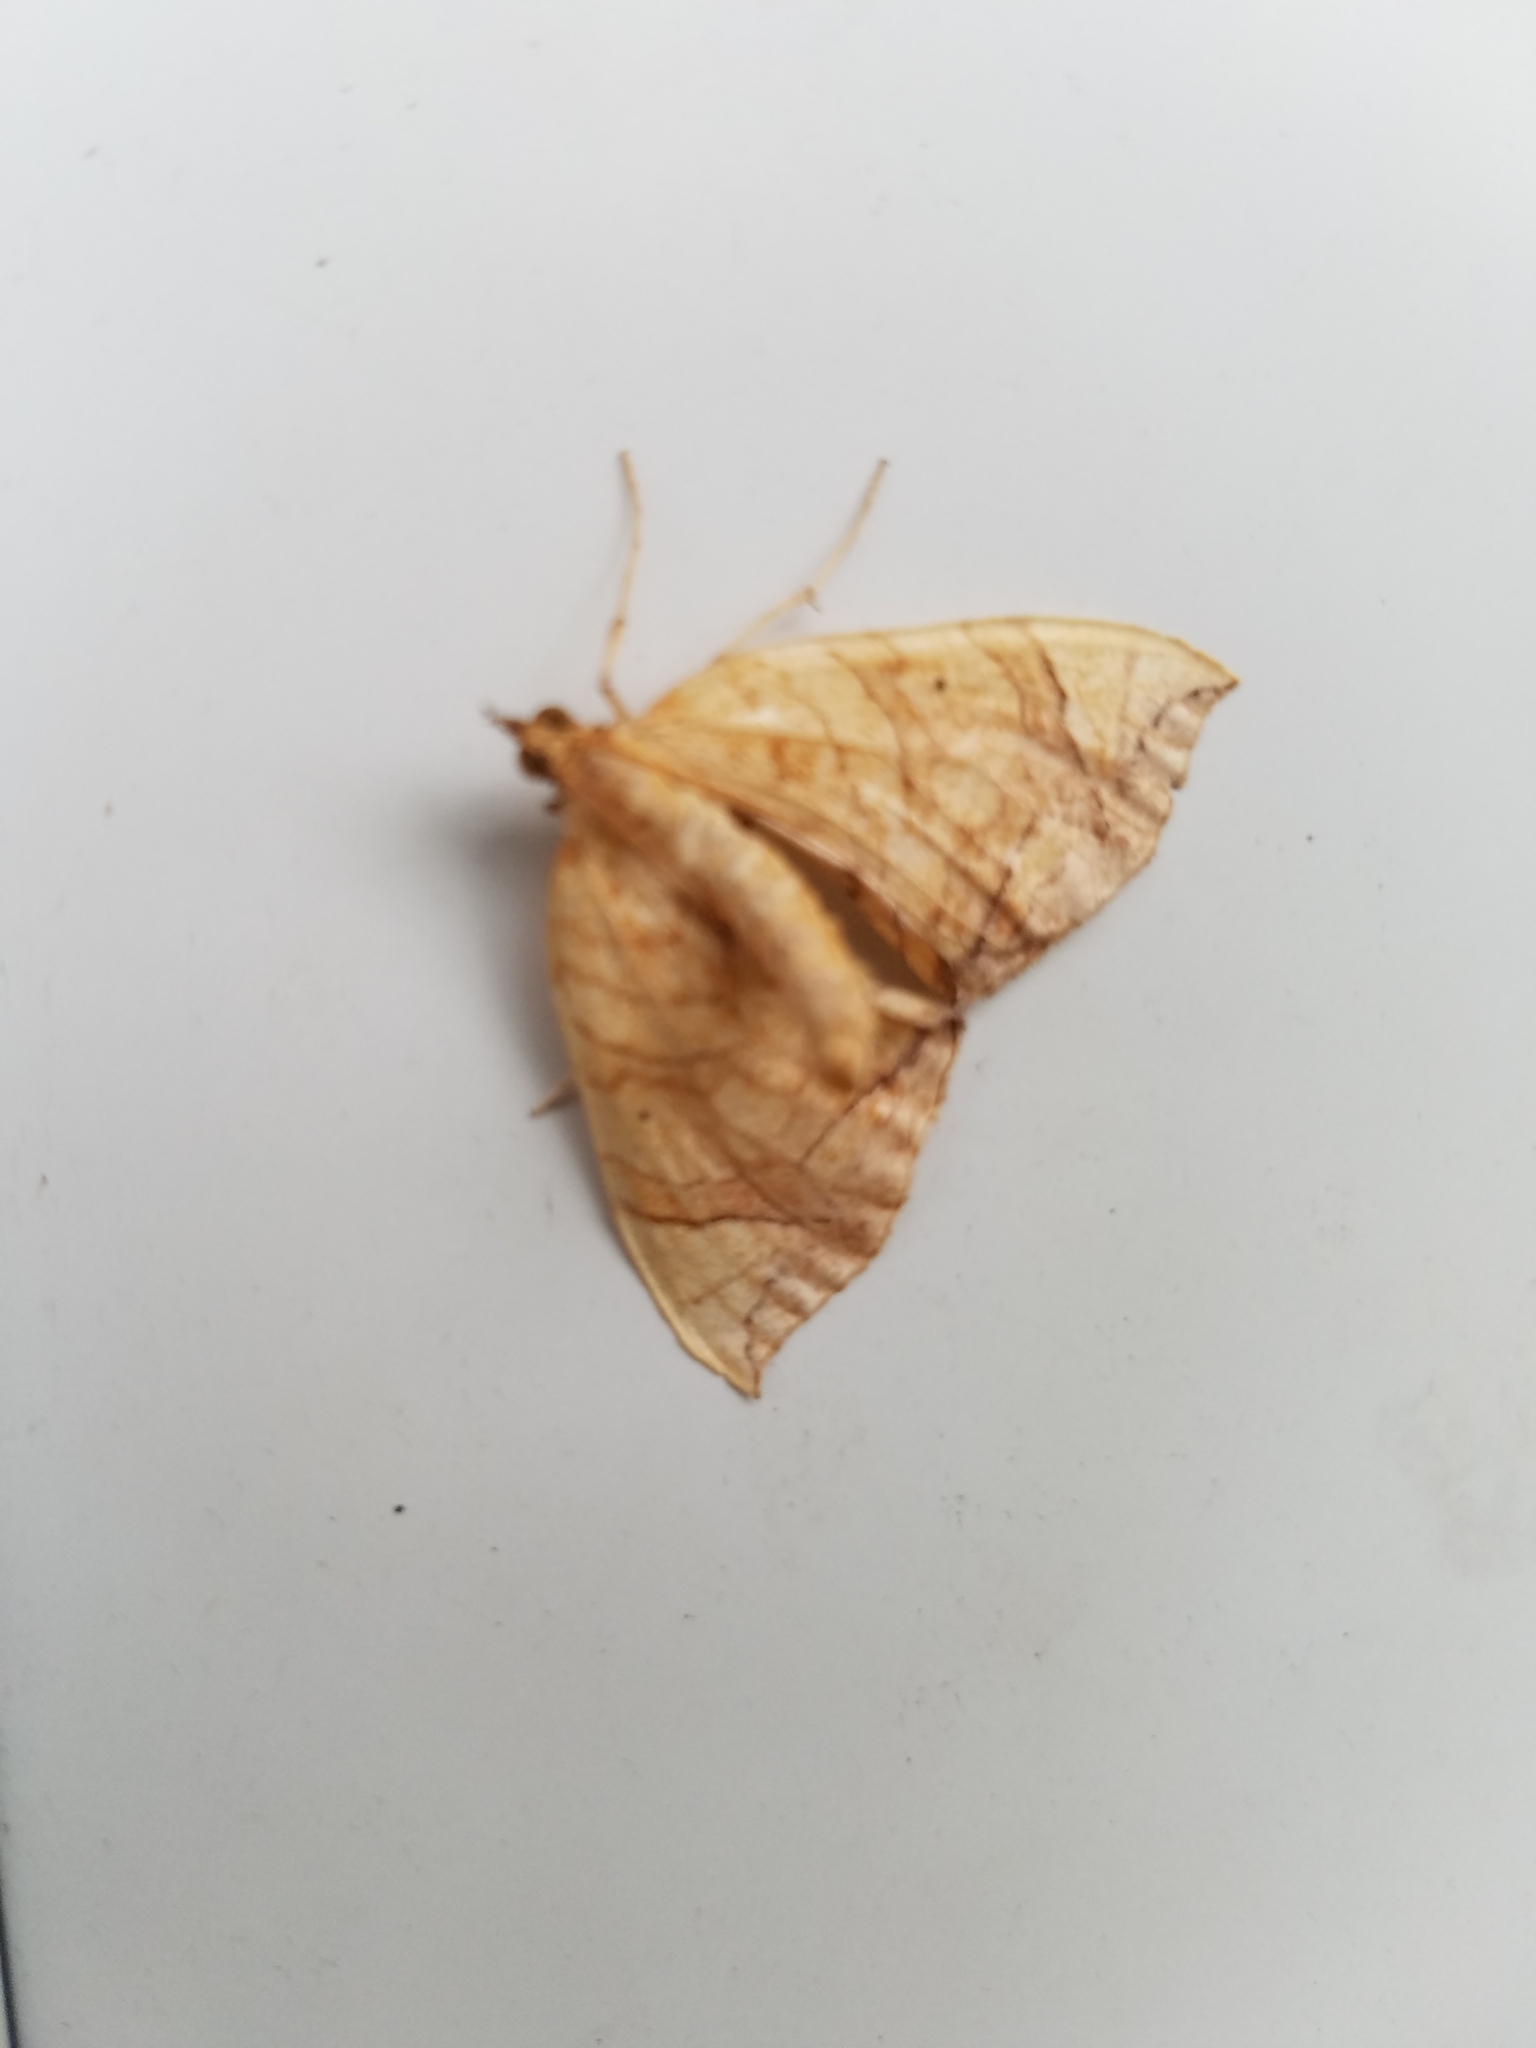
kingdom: Animalia
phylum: Arthropoda
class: Insecta
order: Lepidoptera
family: Geometridae
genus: Eulithis
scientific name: Eulithis gracilineata
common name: Greater grapevine looper moth
